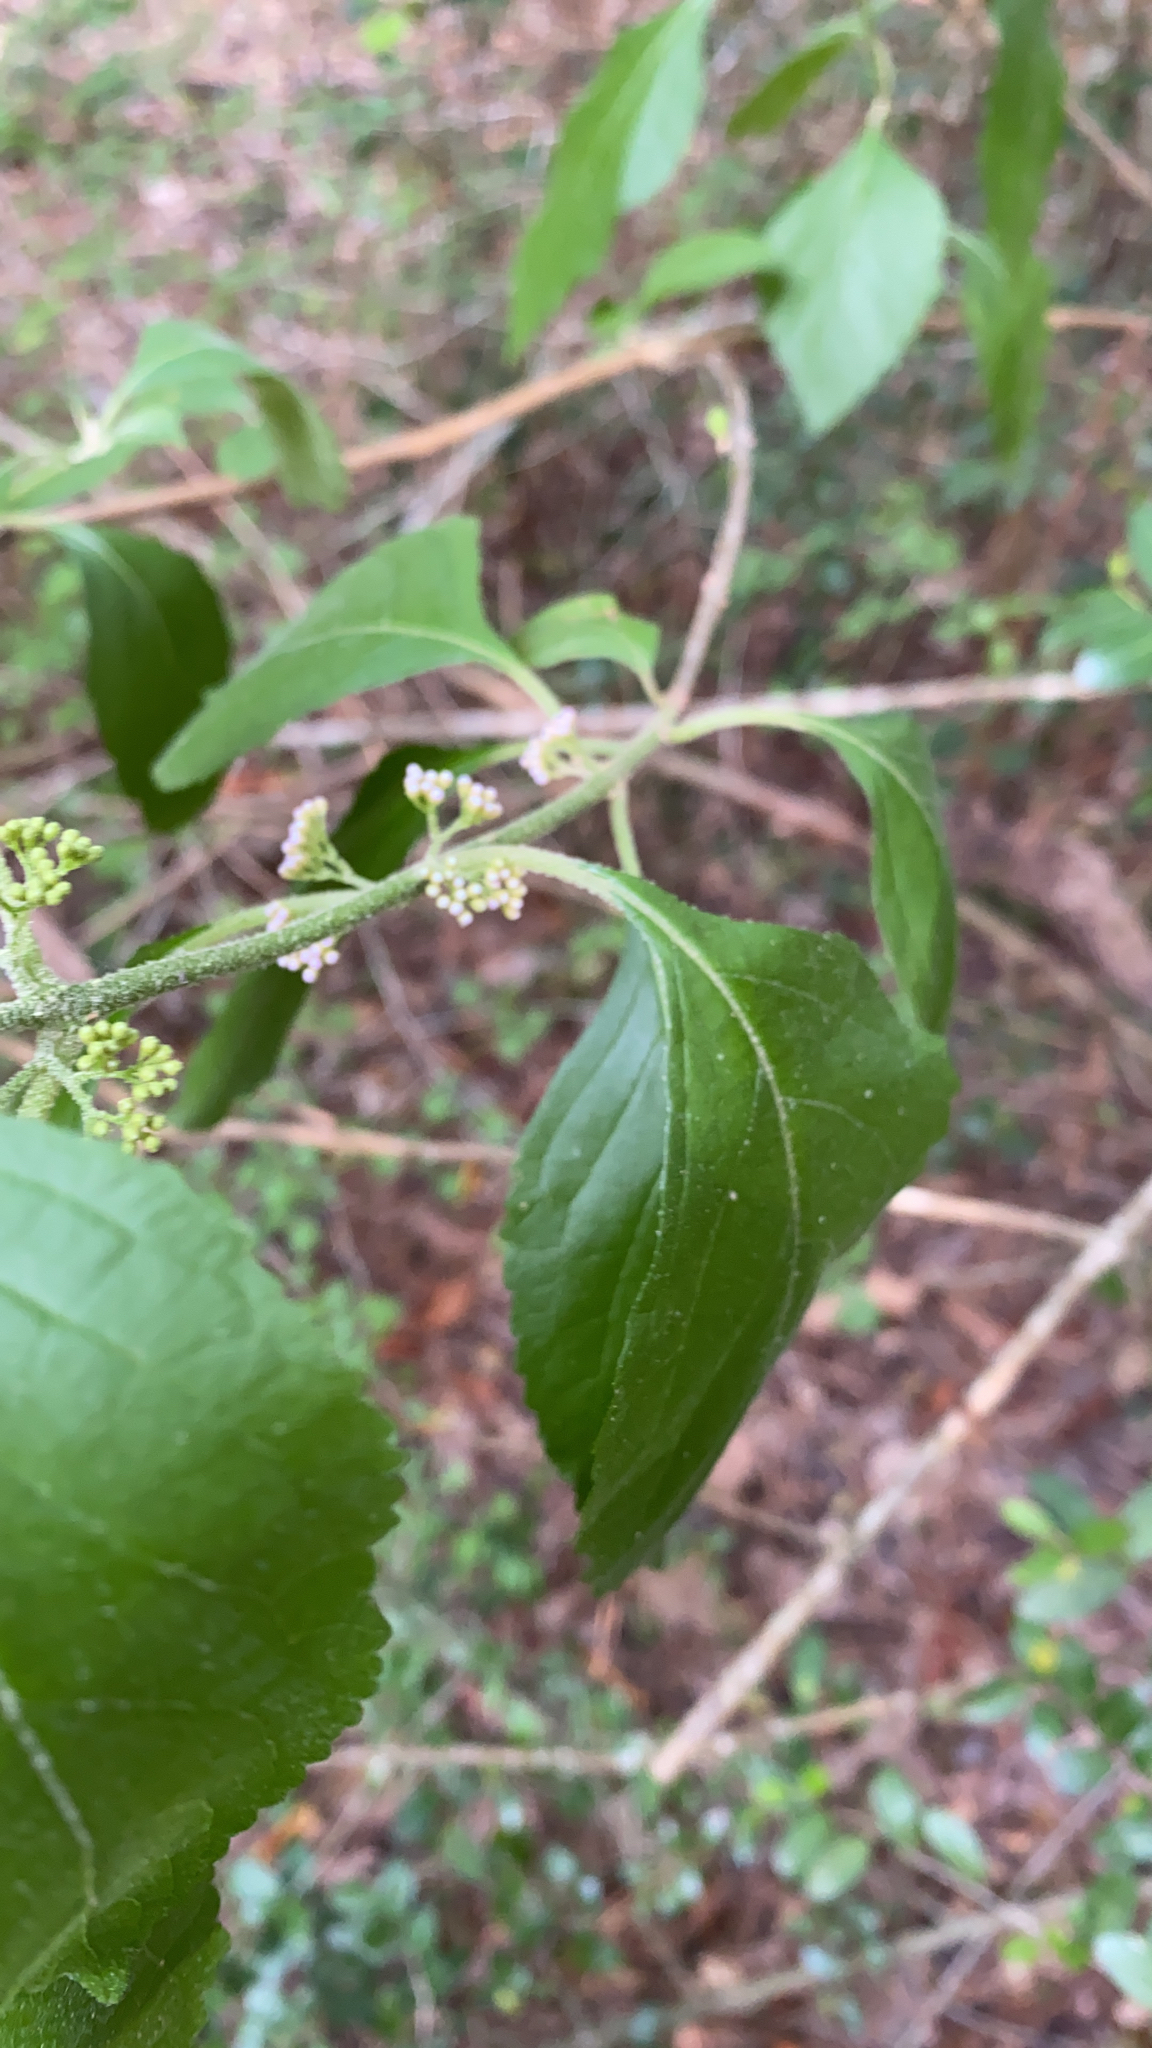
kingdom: Plantae
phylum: Tracheophyta
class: Magnoliopsida
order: Lamiales
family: Lamiaceae
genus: Callicarpa
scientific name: Callicarpa americana
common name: American beautyberry
